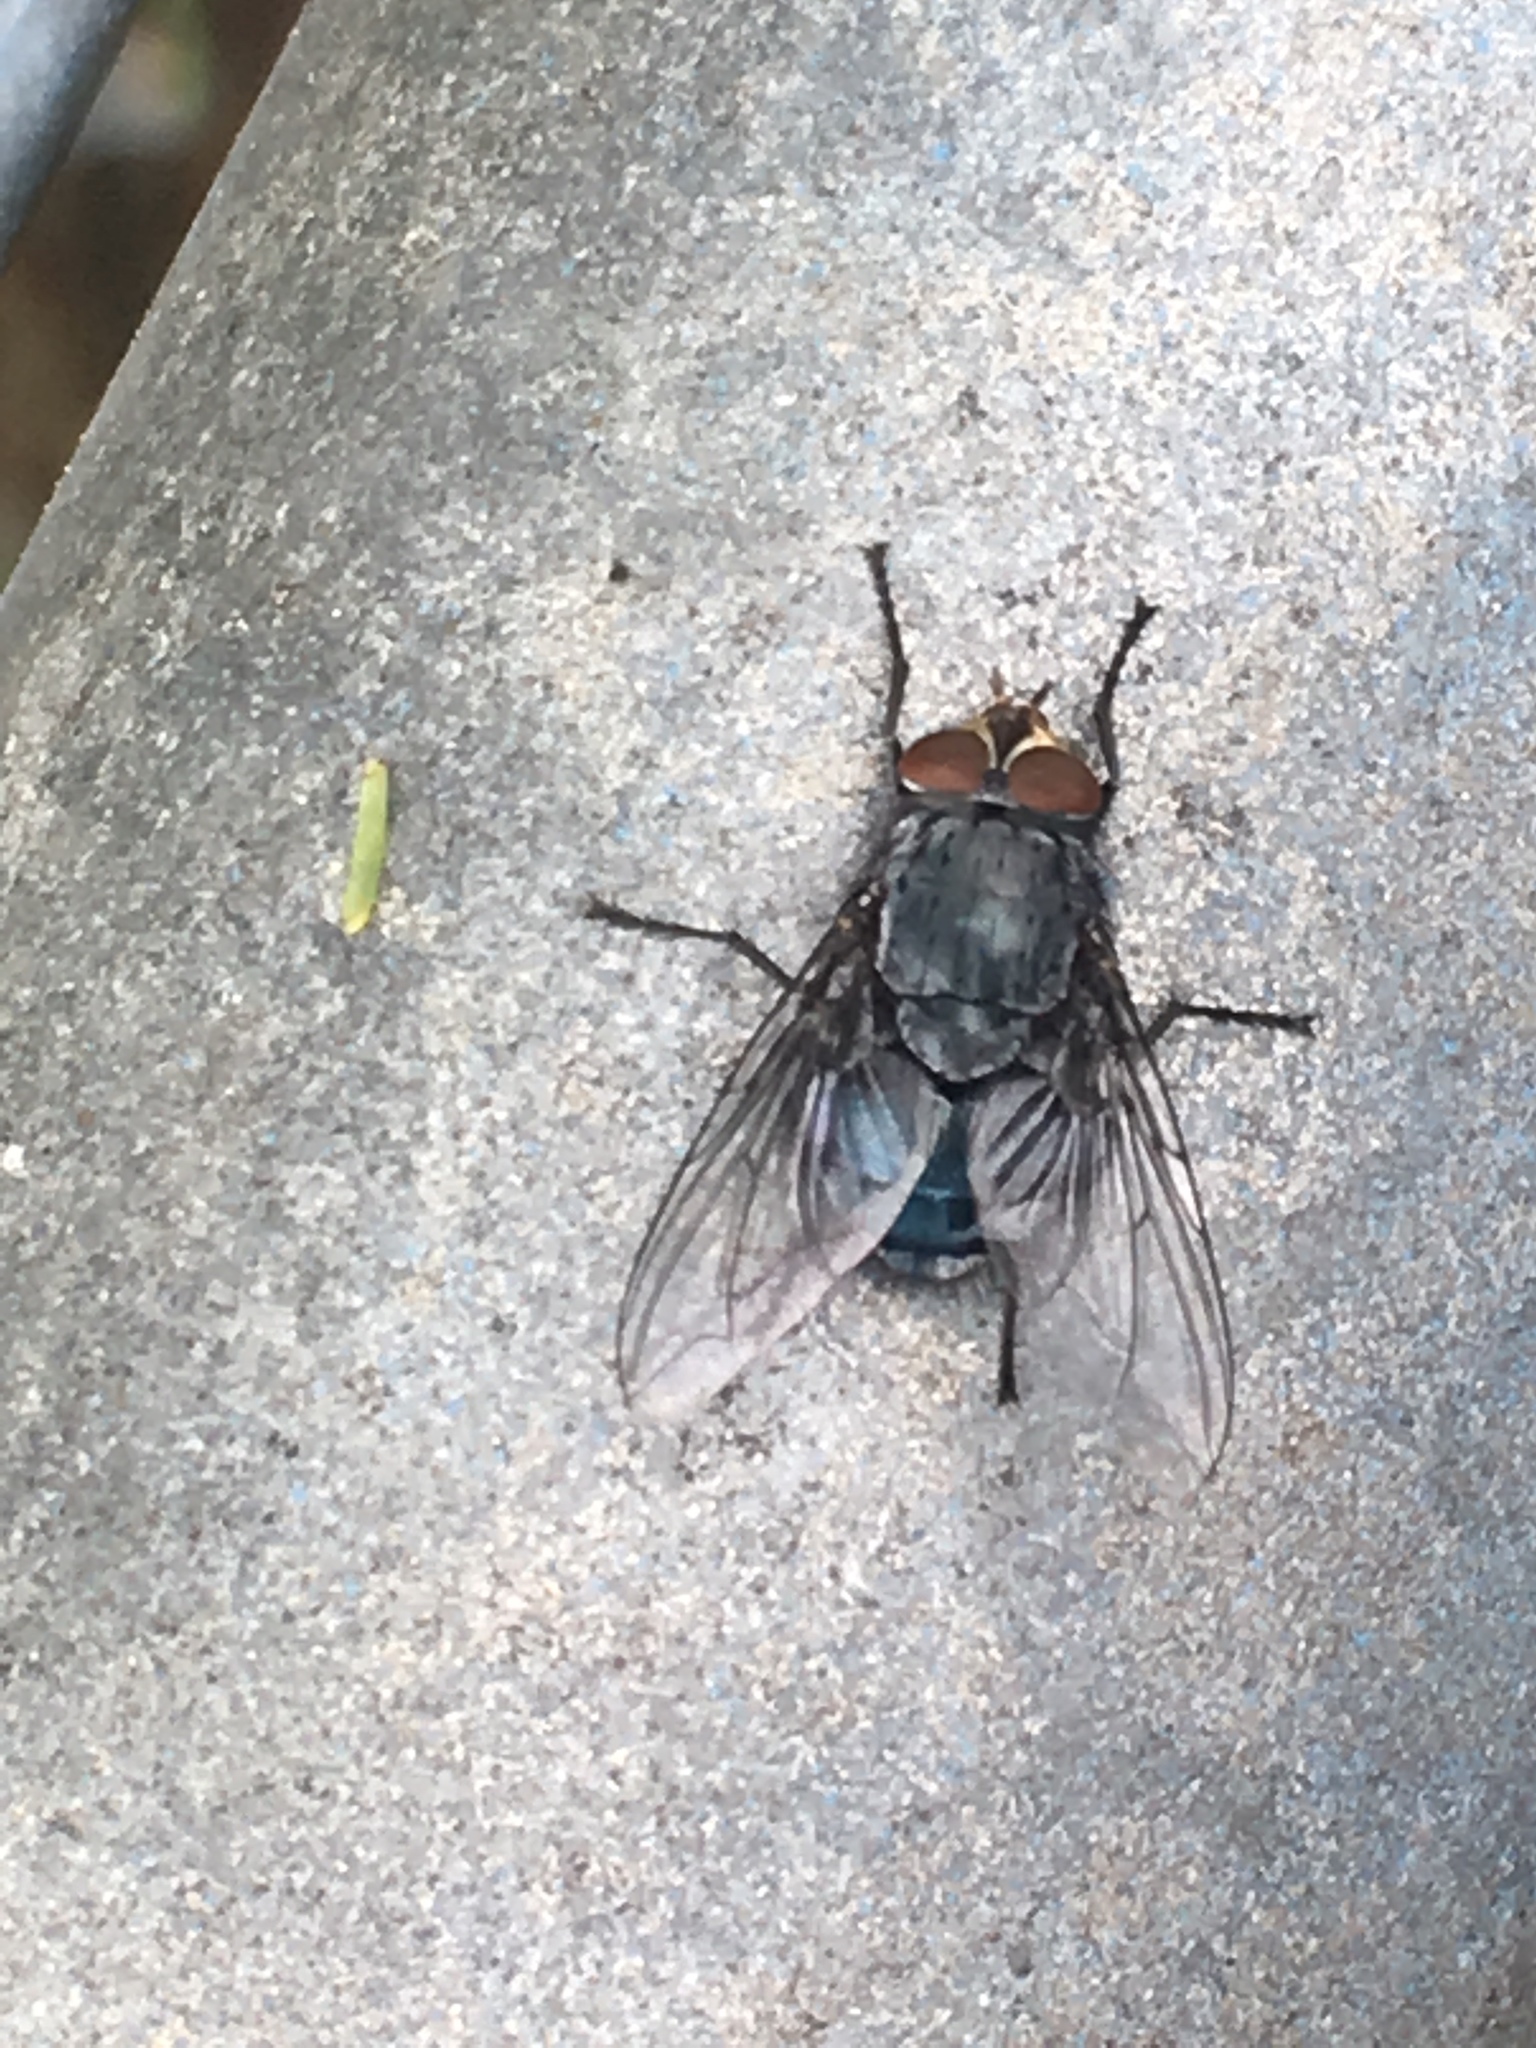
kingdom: Animalia
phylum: Arthropoda
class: Insecta
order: Diptera
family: Calliphoridae
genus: Calliphora
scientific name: Calliphora vicina
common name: Common blow flie
